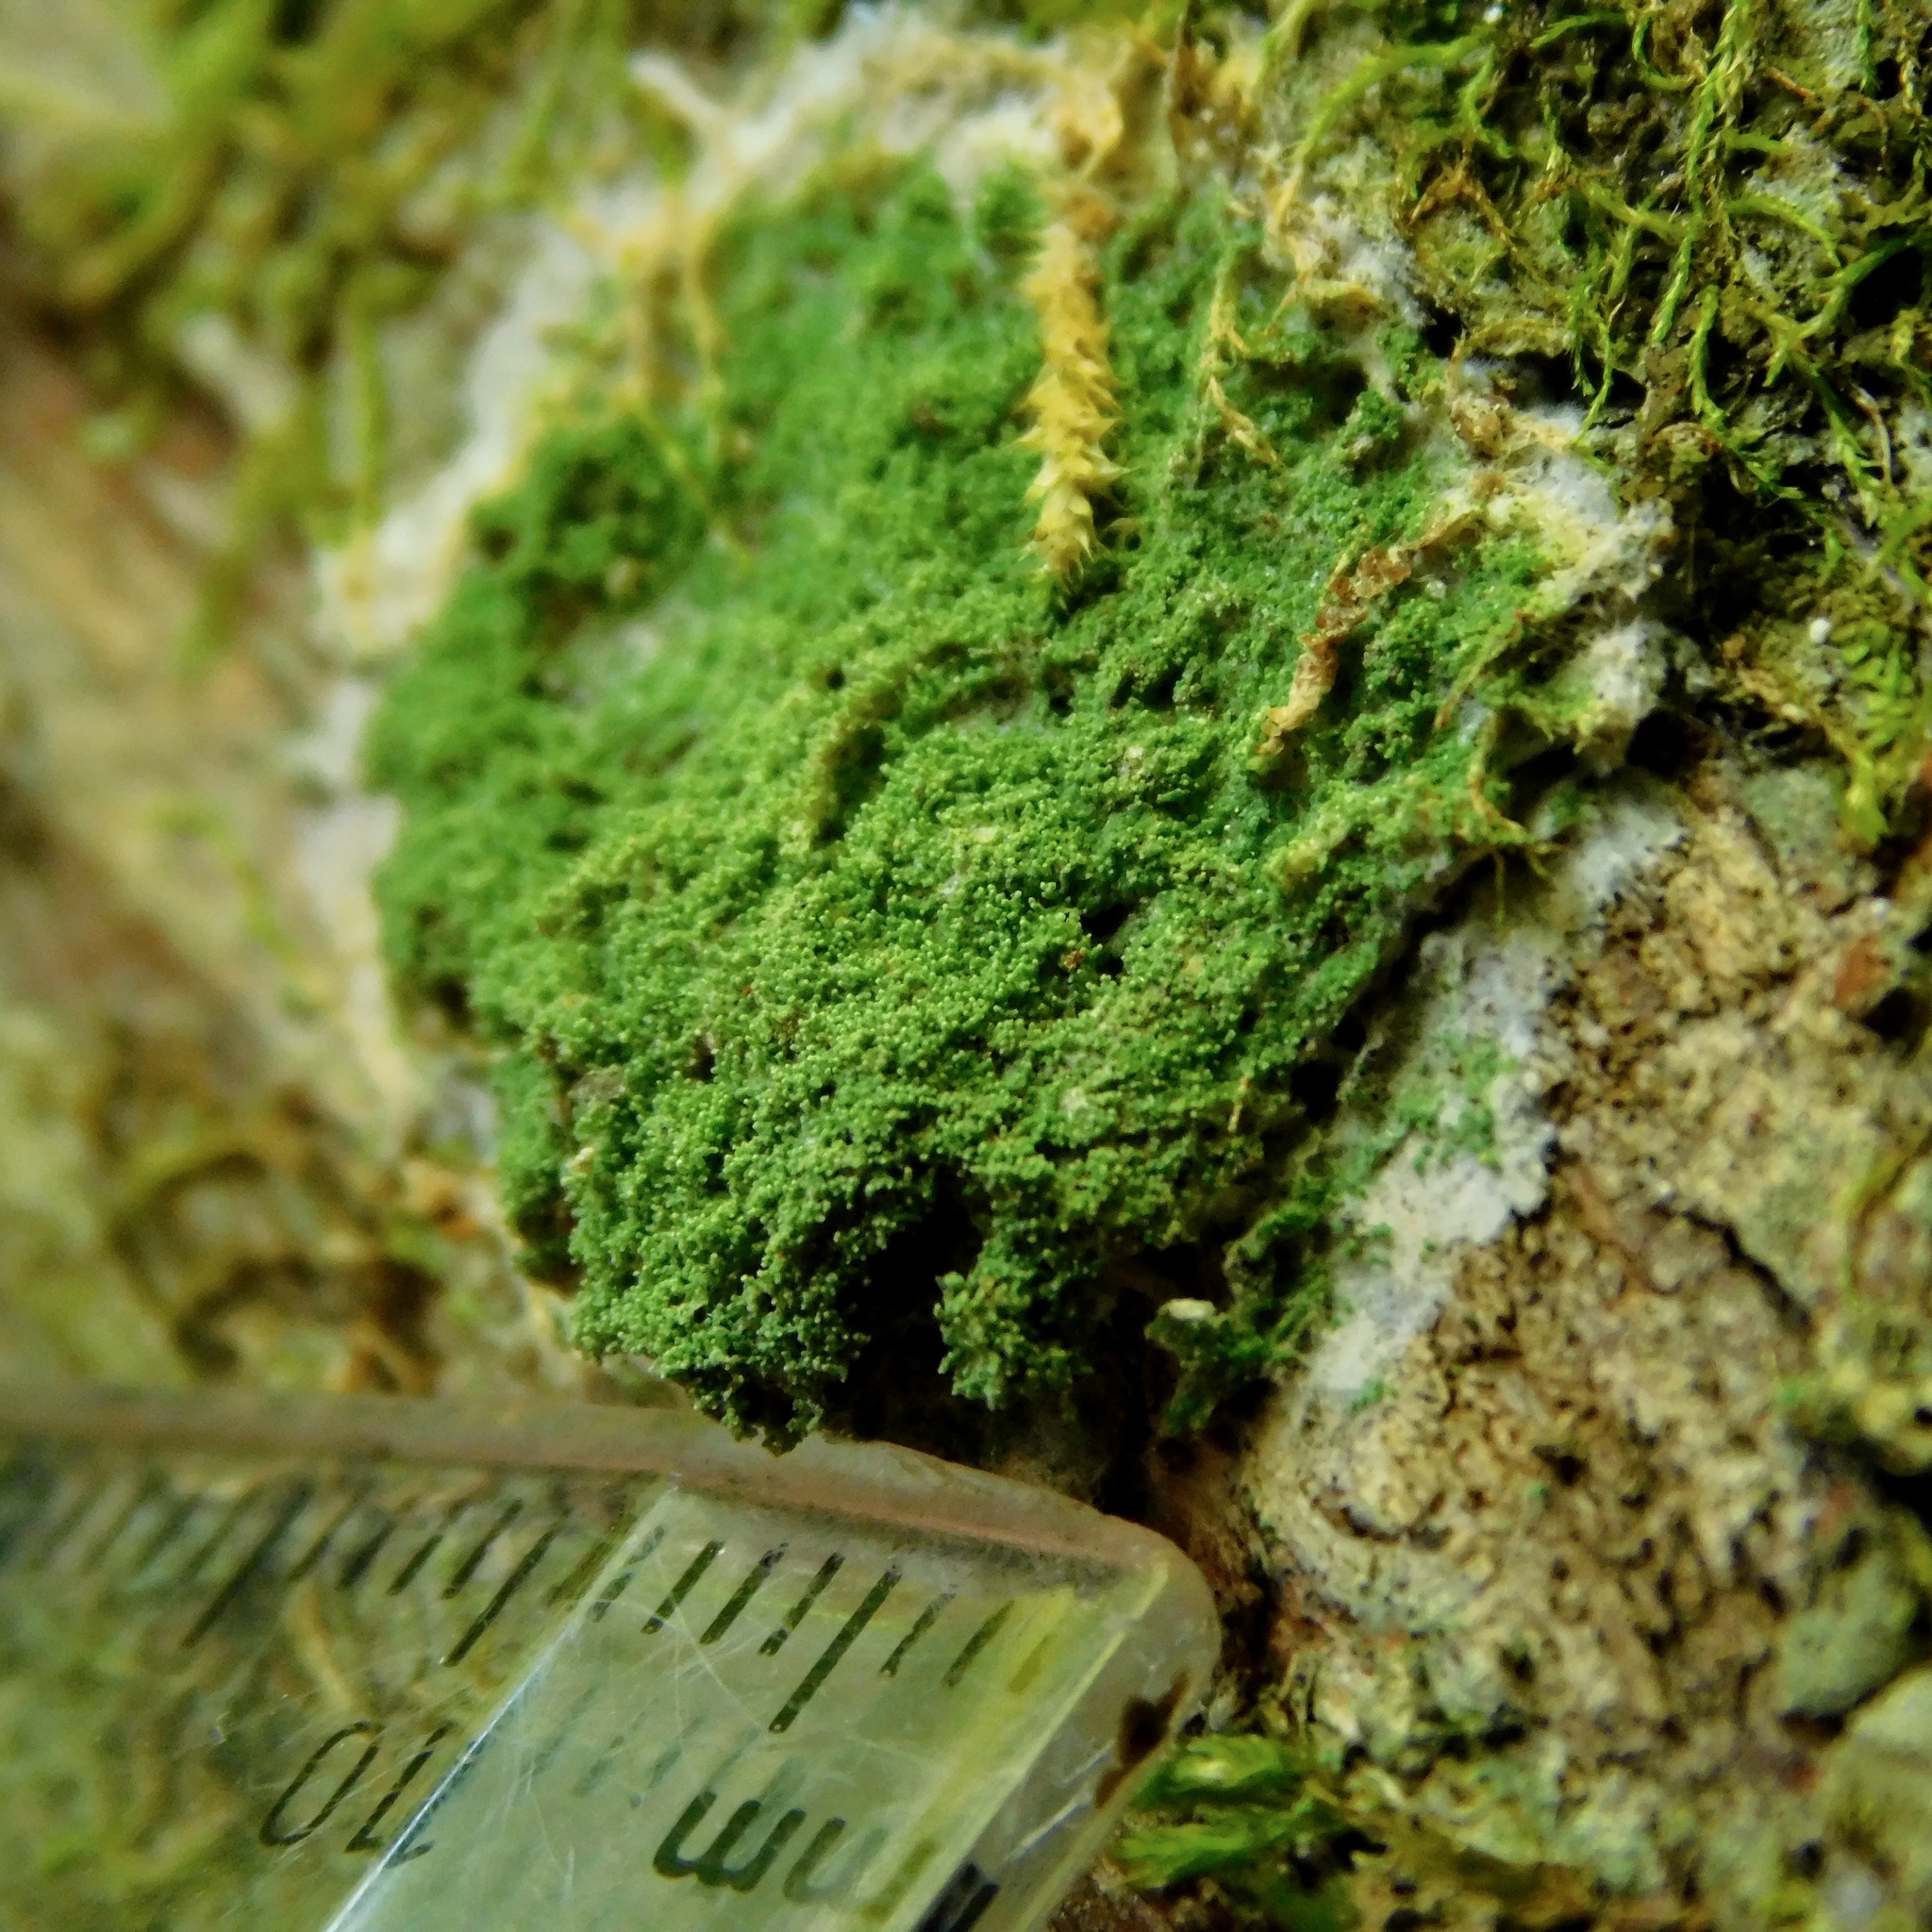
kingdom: Fungi
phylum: Ascomycota
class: Lecanoromycetes
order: Lecanorales
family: Ramalinaceae
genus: Phyllopsora
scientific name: Phyllopsora corallina
